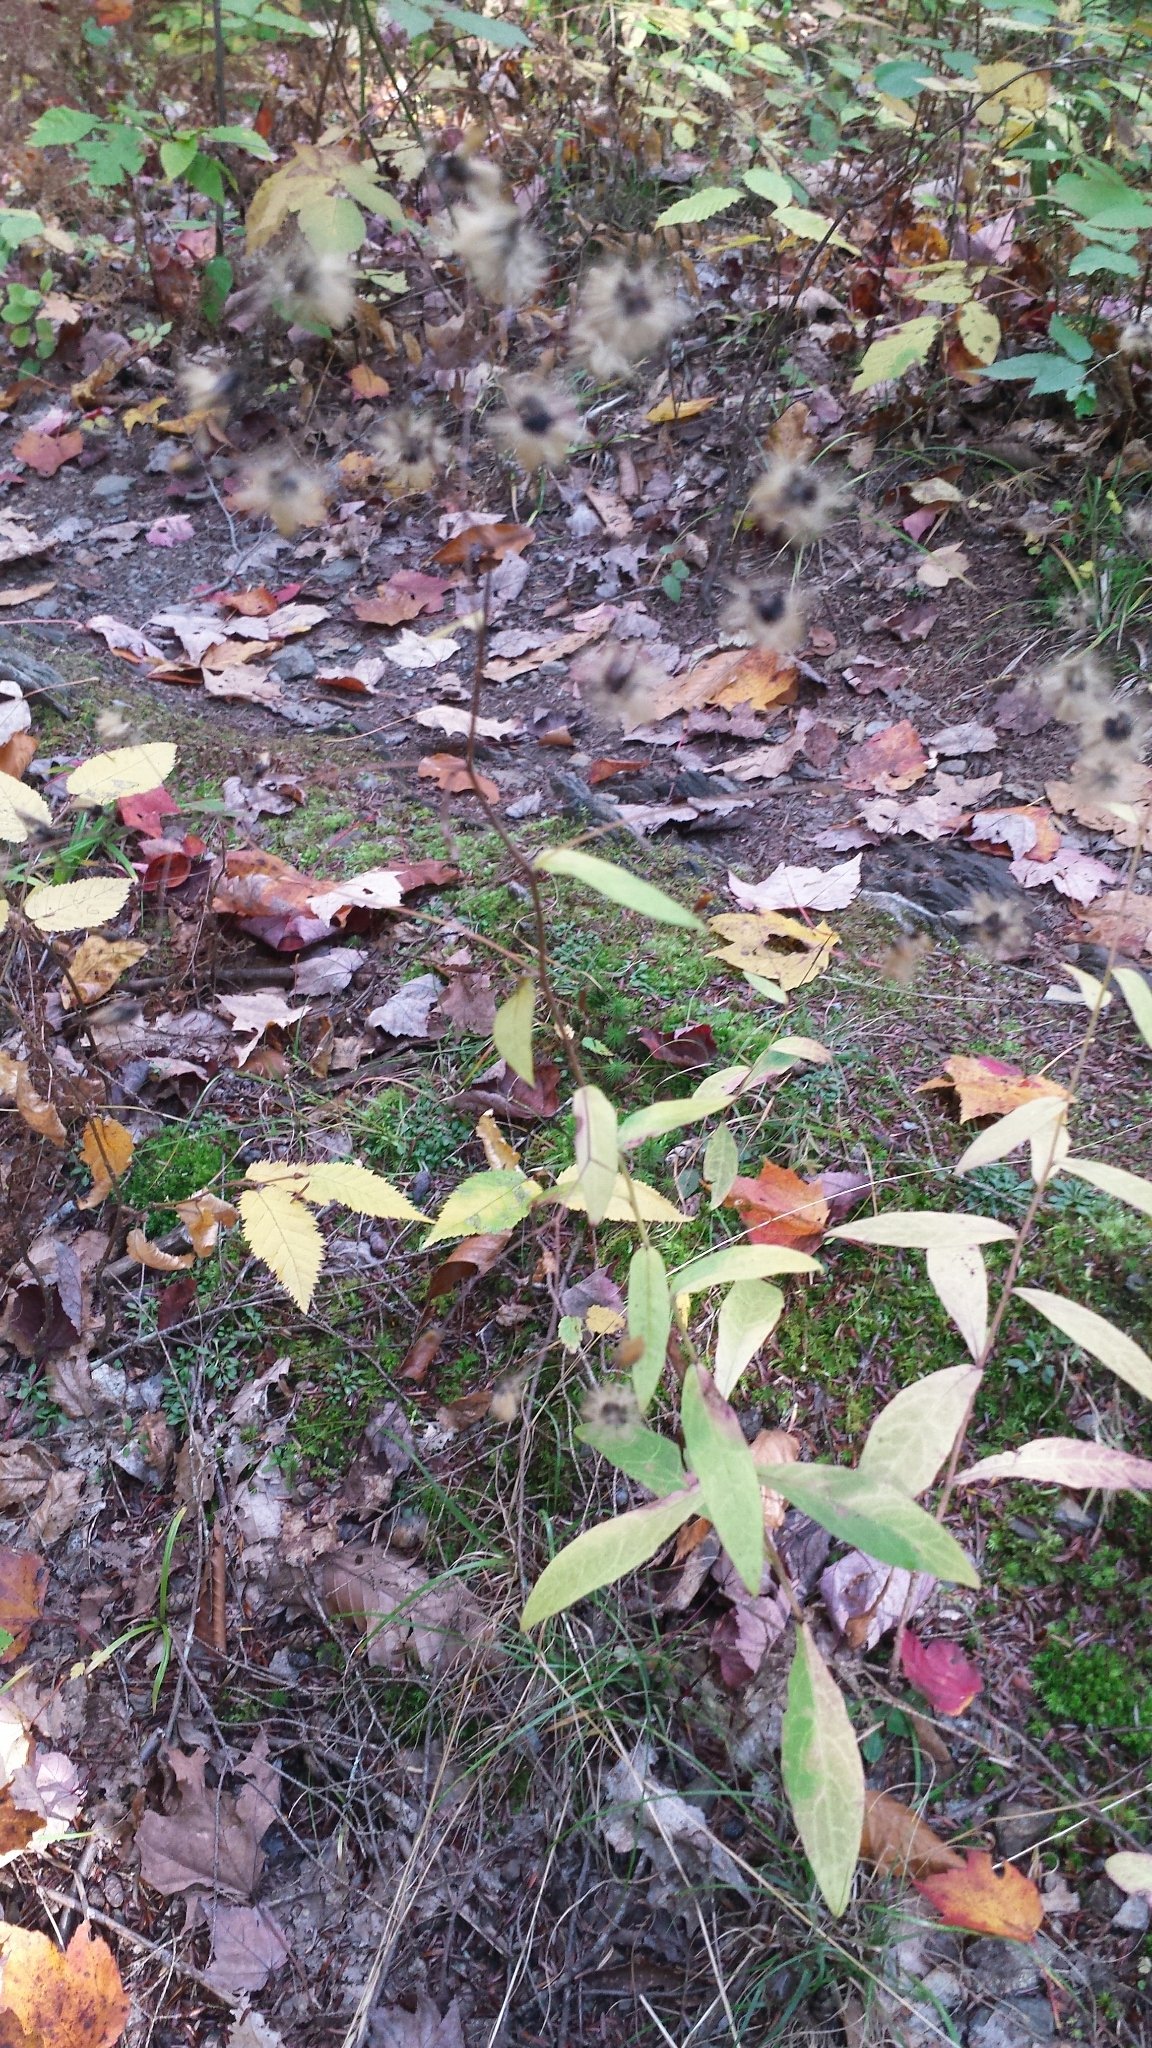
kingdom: Plantae
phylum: Tracheophyta
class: Magnoliopsida
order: Asterales
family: Asteraceae
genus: Hieracium
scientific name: Hieracium paniculatum
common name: Allegheny hawkweed
